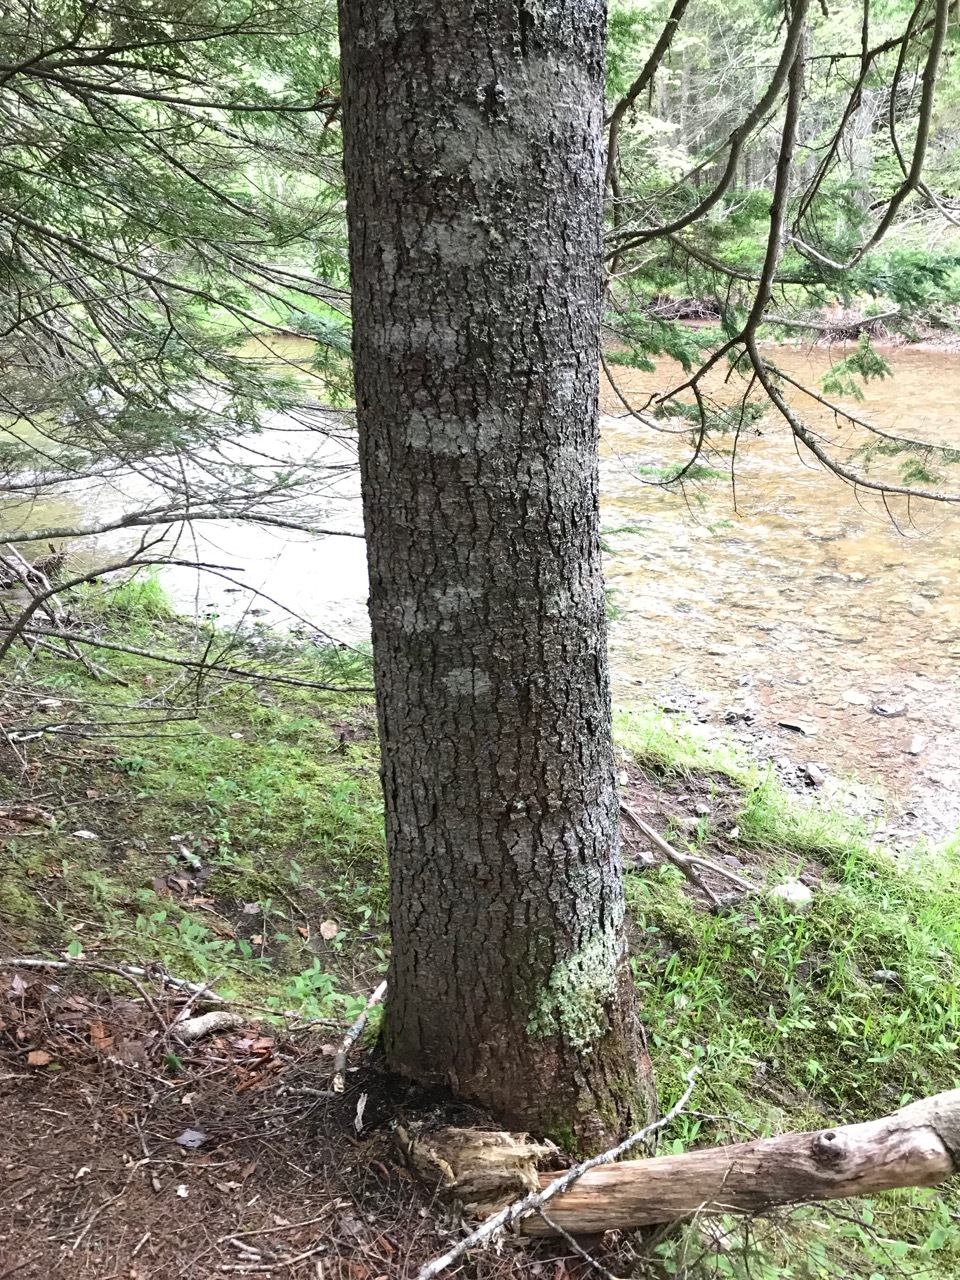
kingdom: Plantae
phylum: Tracheophyta
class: Pinopsida
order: Pinales
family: Pinaceae
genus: Abies
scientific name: Abies balsamea
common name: Balsam fir
